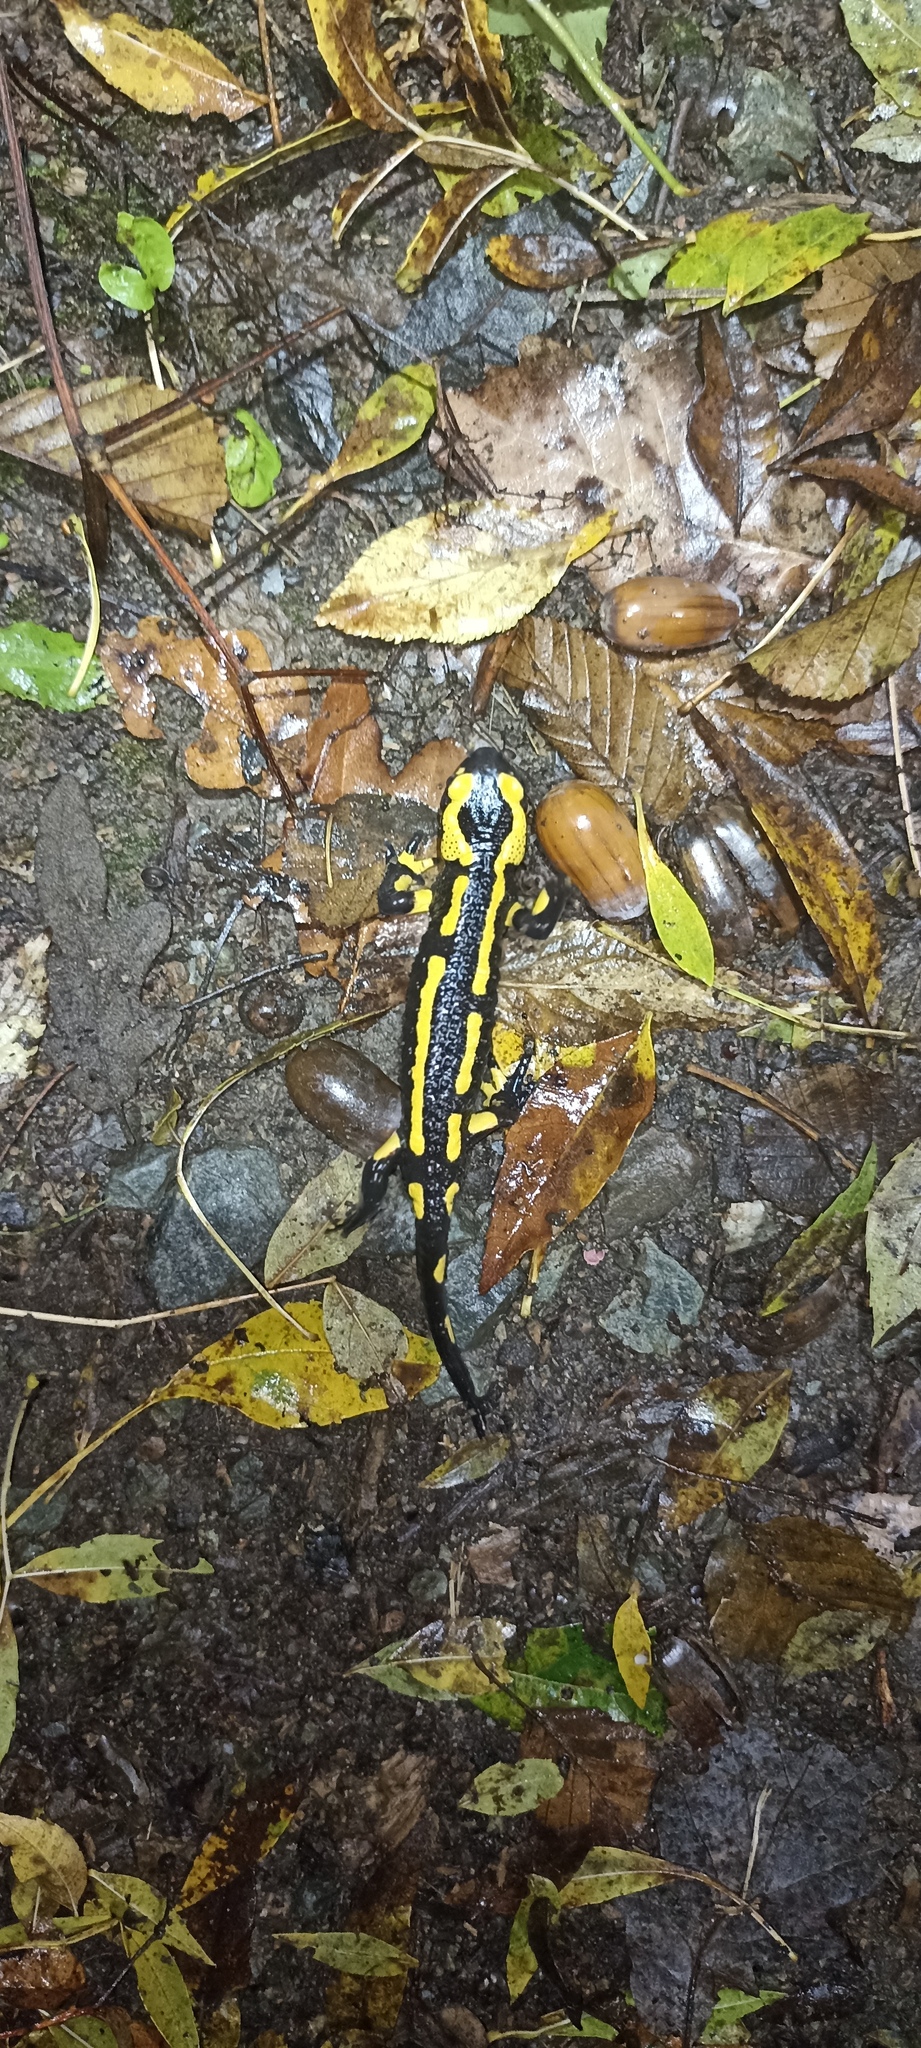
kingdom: Animalia
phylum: Chordata
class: Amphibia
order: Caudata
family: Salamandridae
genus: Salamandra
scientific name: Salamandra salamandra
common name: Fire salamander
